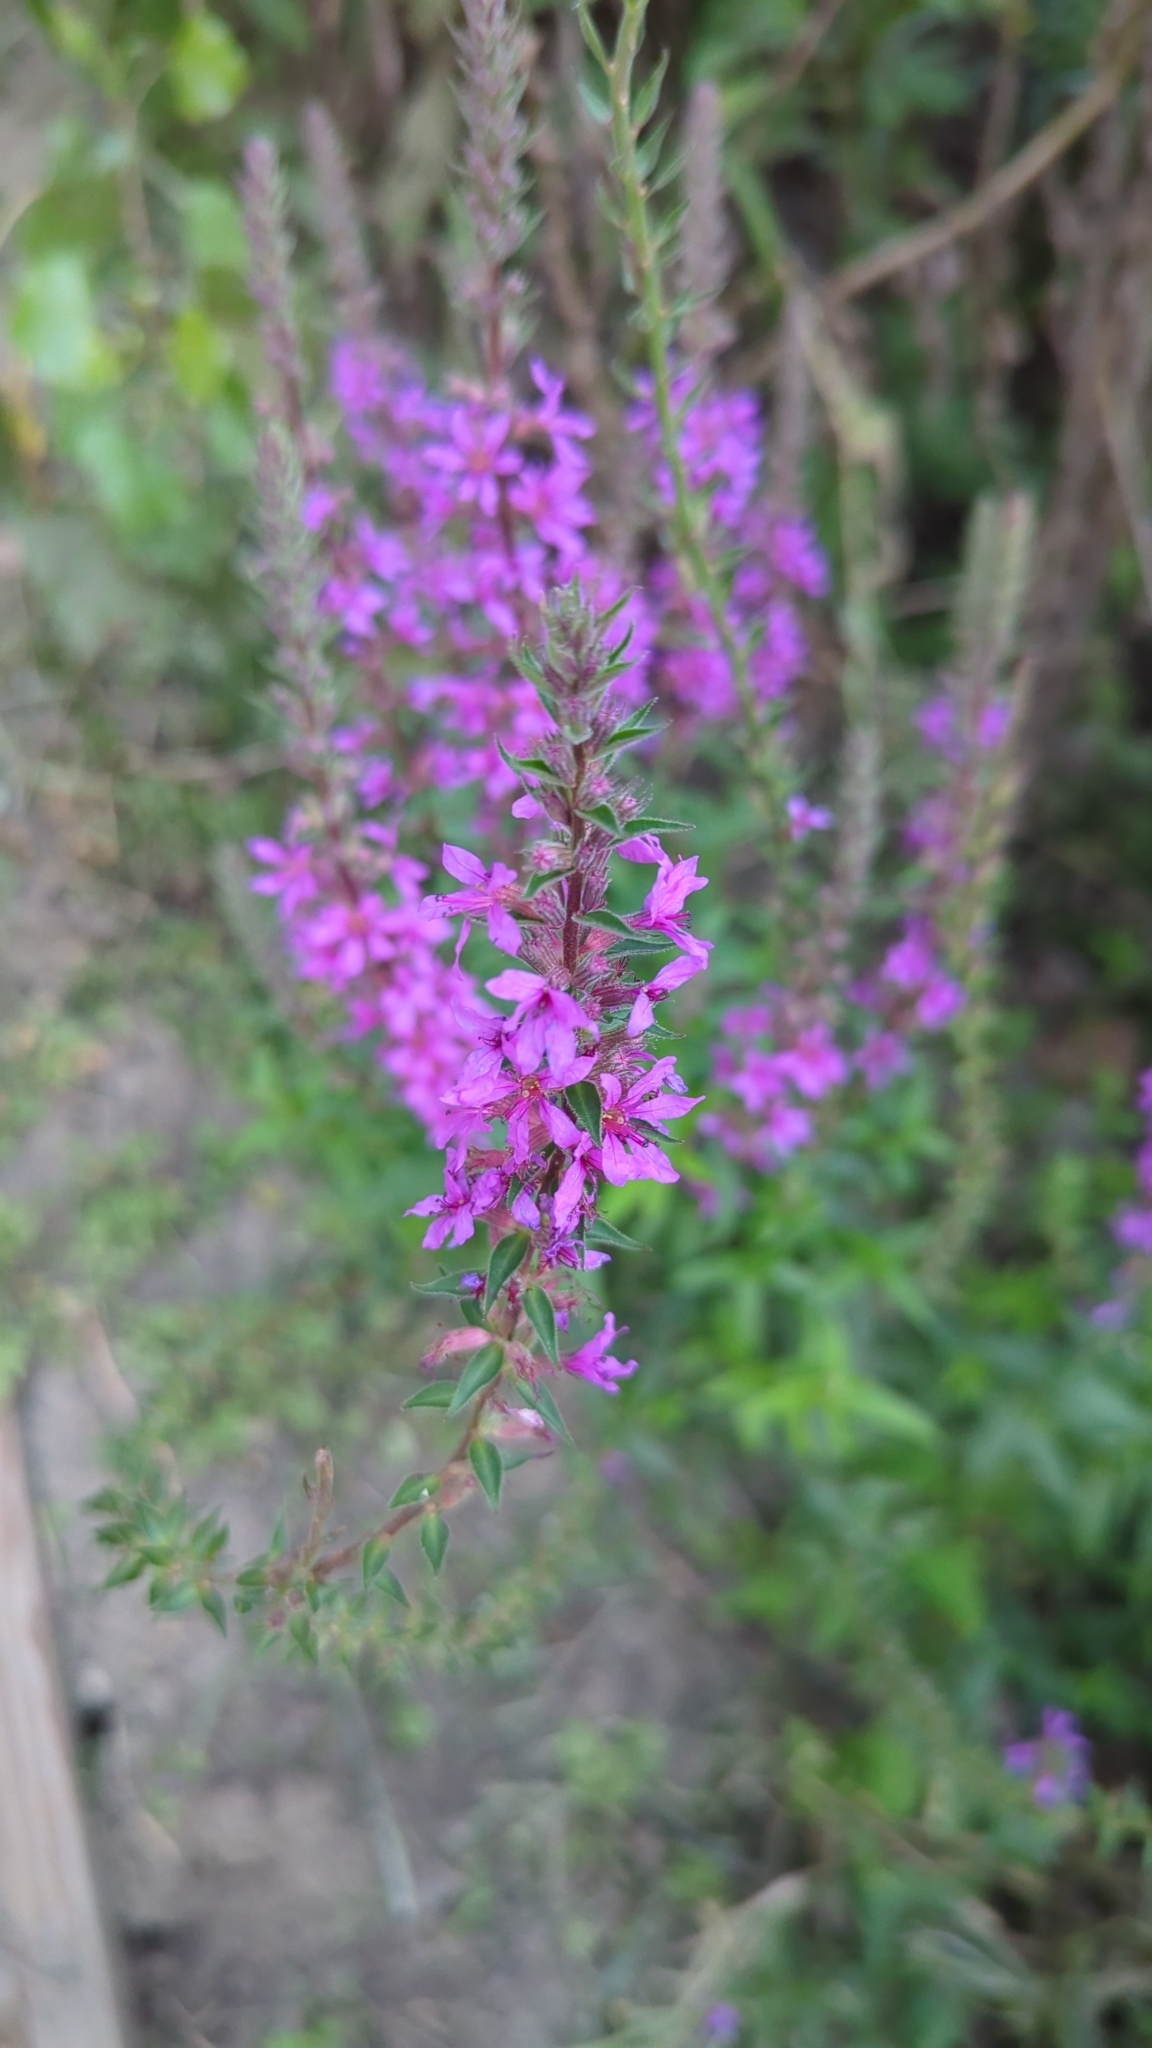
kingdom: Plantae
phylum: Tracheophyta
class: Magnoliopsida
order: Myrtales
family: Lythraceae
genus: Lythrum
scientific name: Lythrum salicaria
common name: Purple loosestrife
